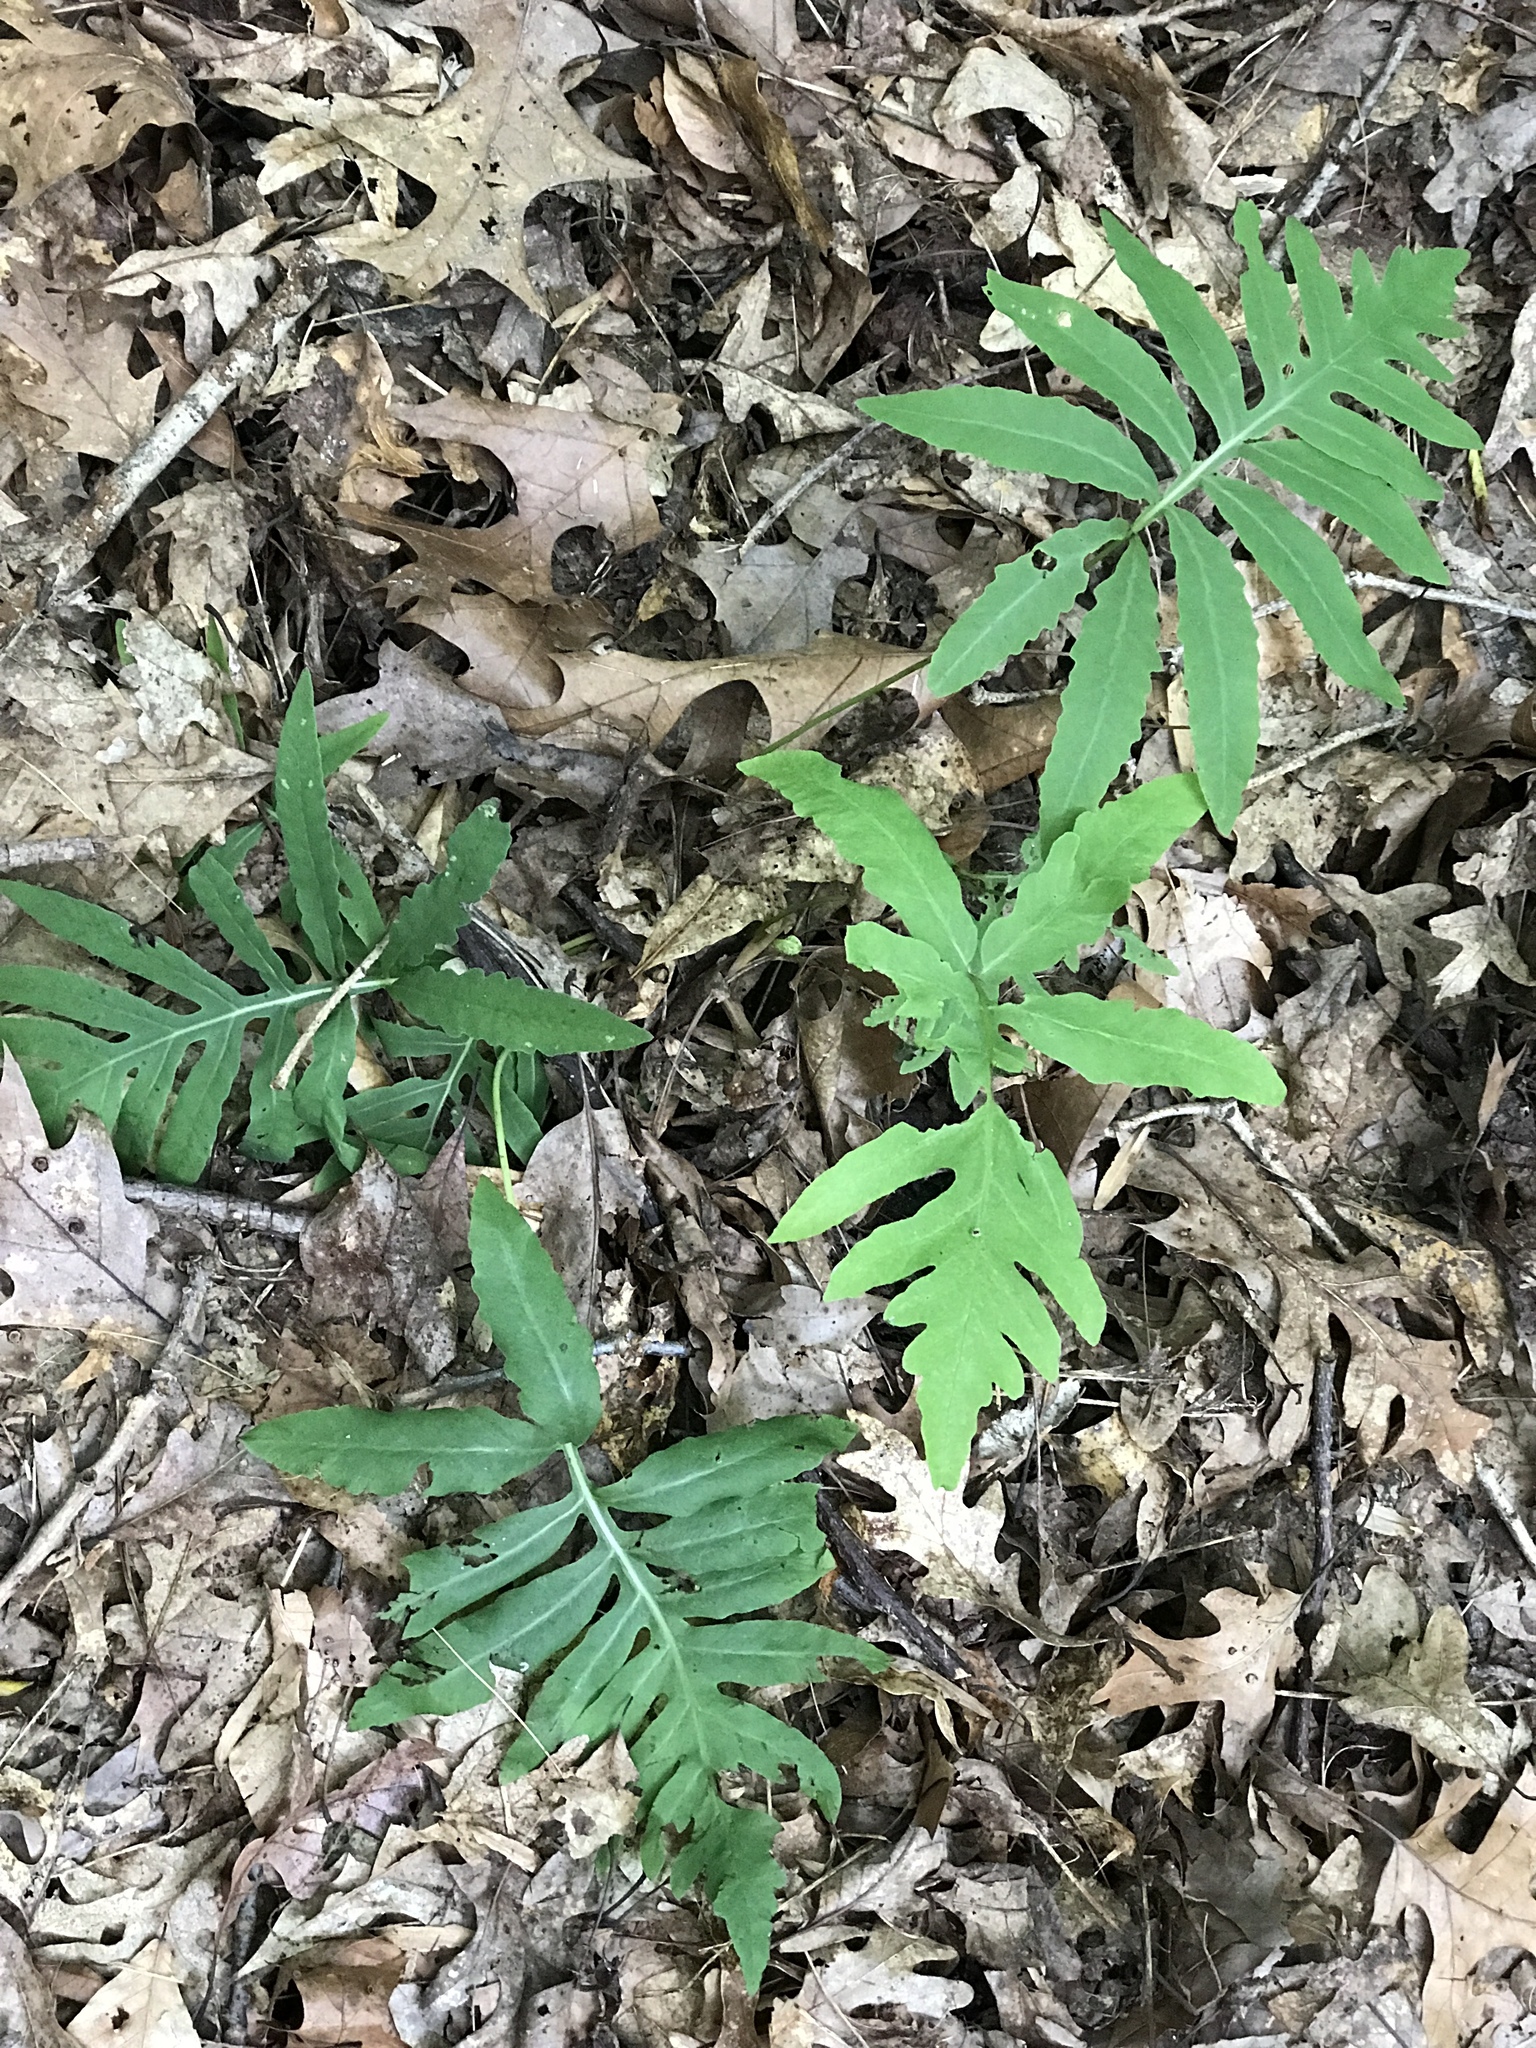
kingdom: Plantae
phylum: Tracheophyta
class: Polypodiopsida
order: Polypodiales
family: Onocleaceae
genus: Onoclea
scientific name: Onoclea sensibilis
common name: Sensitive fern
